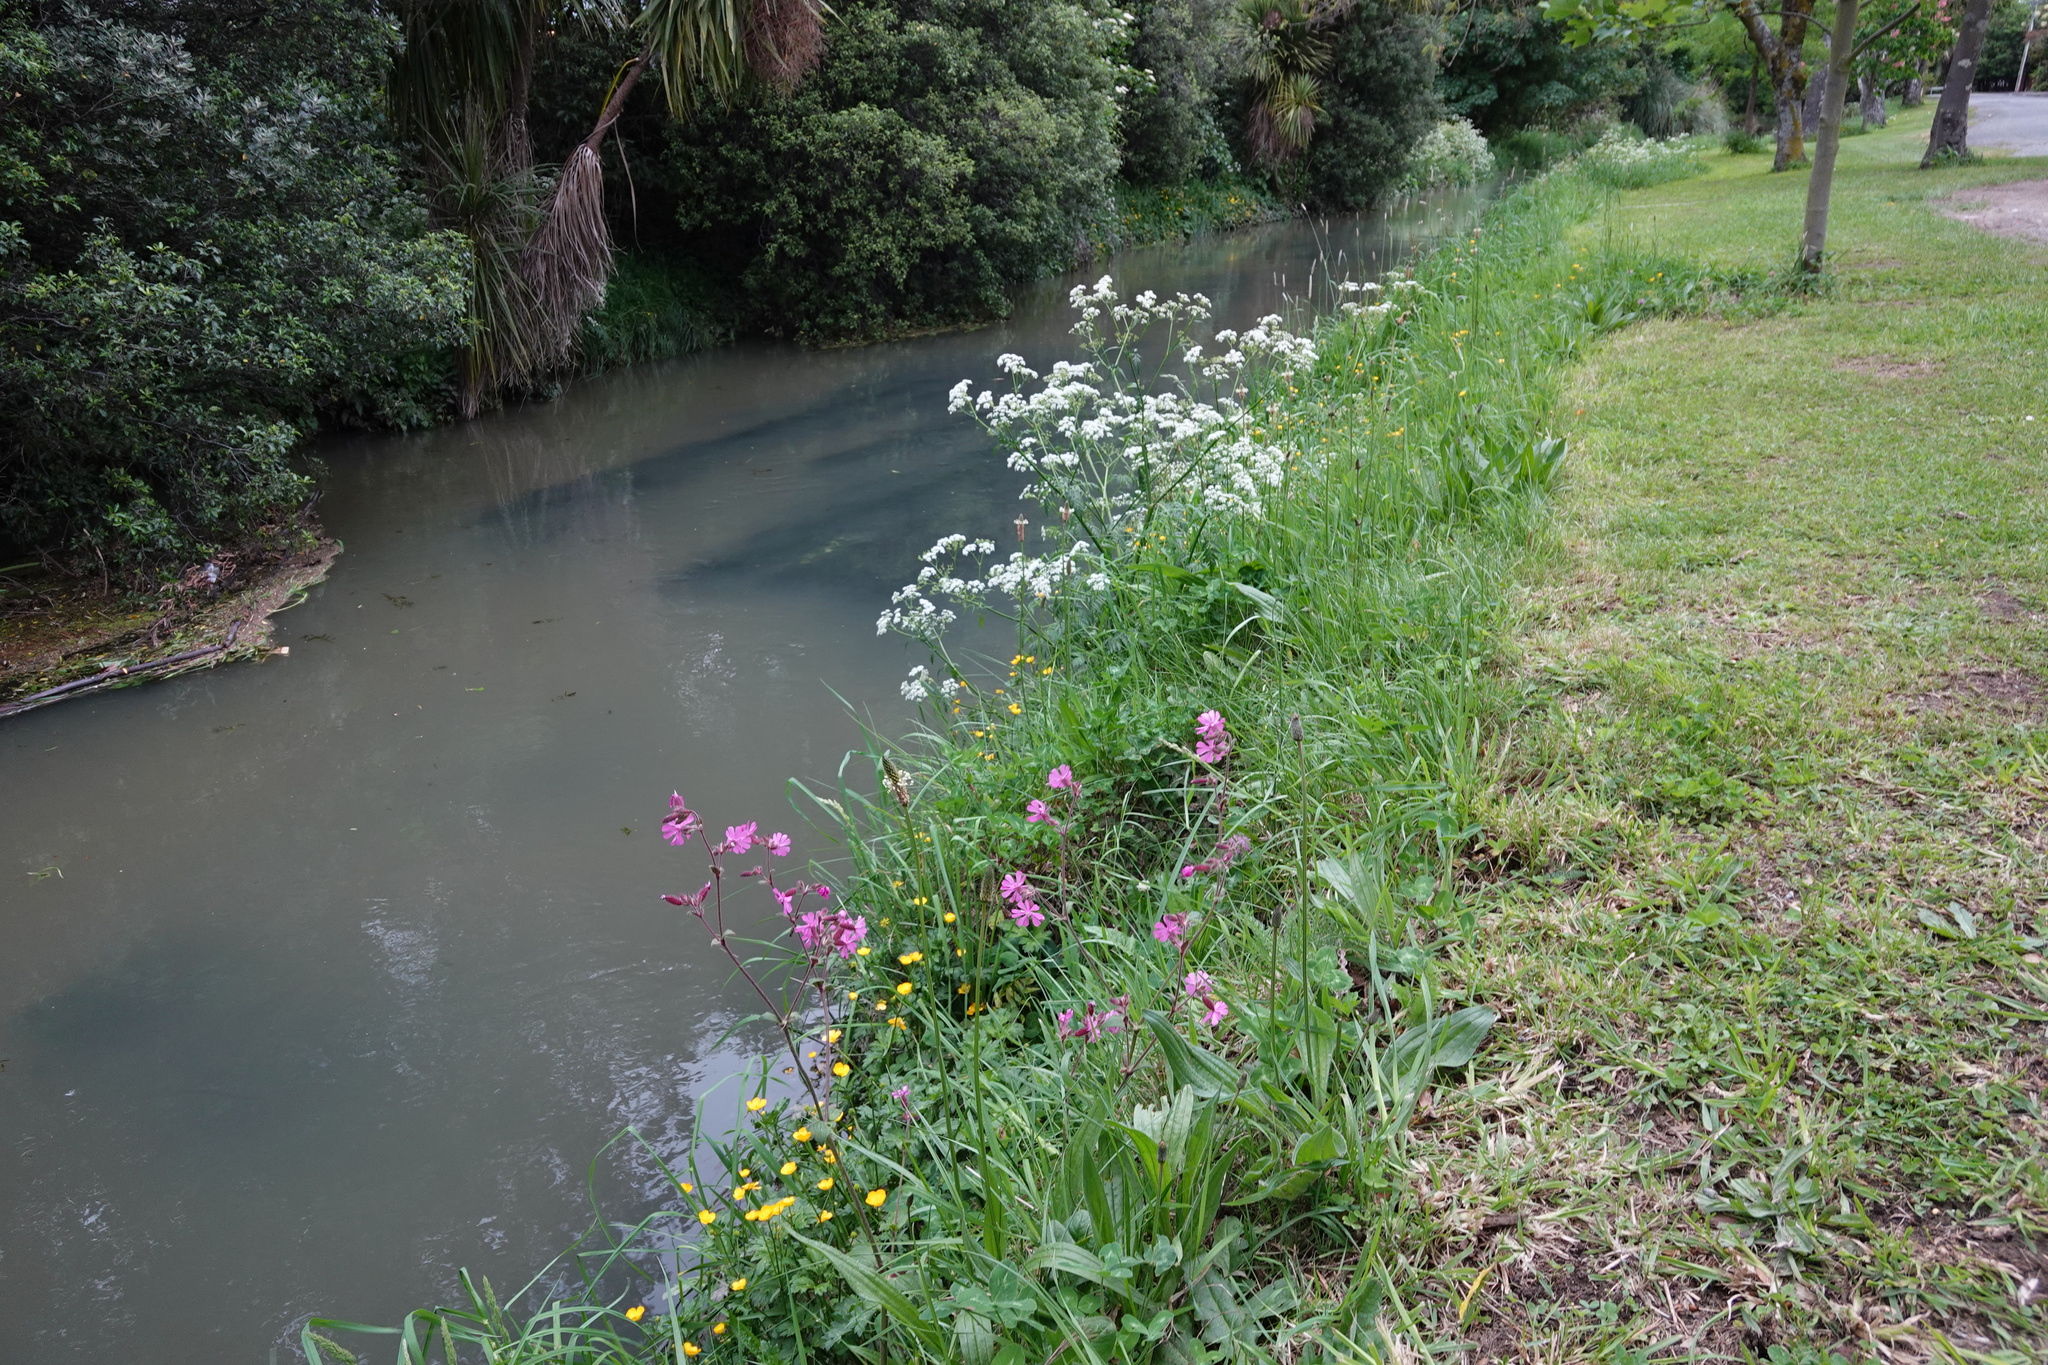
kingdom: Plantae
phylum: Tracheophyta
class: Magnoliopsida
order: Caryophyllales
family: Caryophyllaceae
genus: Silene
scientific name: Silene dioica
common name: Red campion
